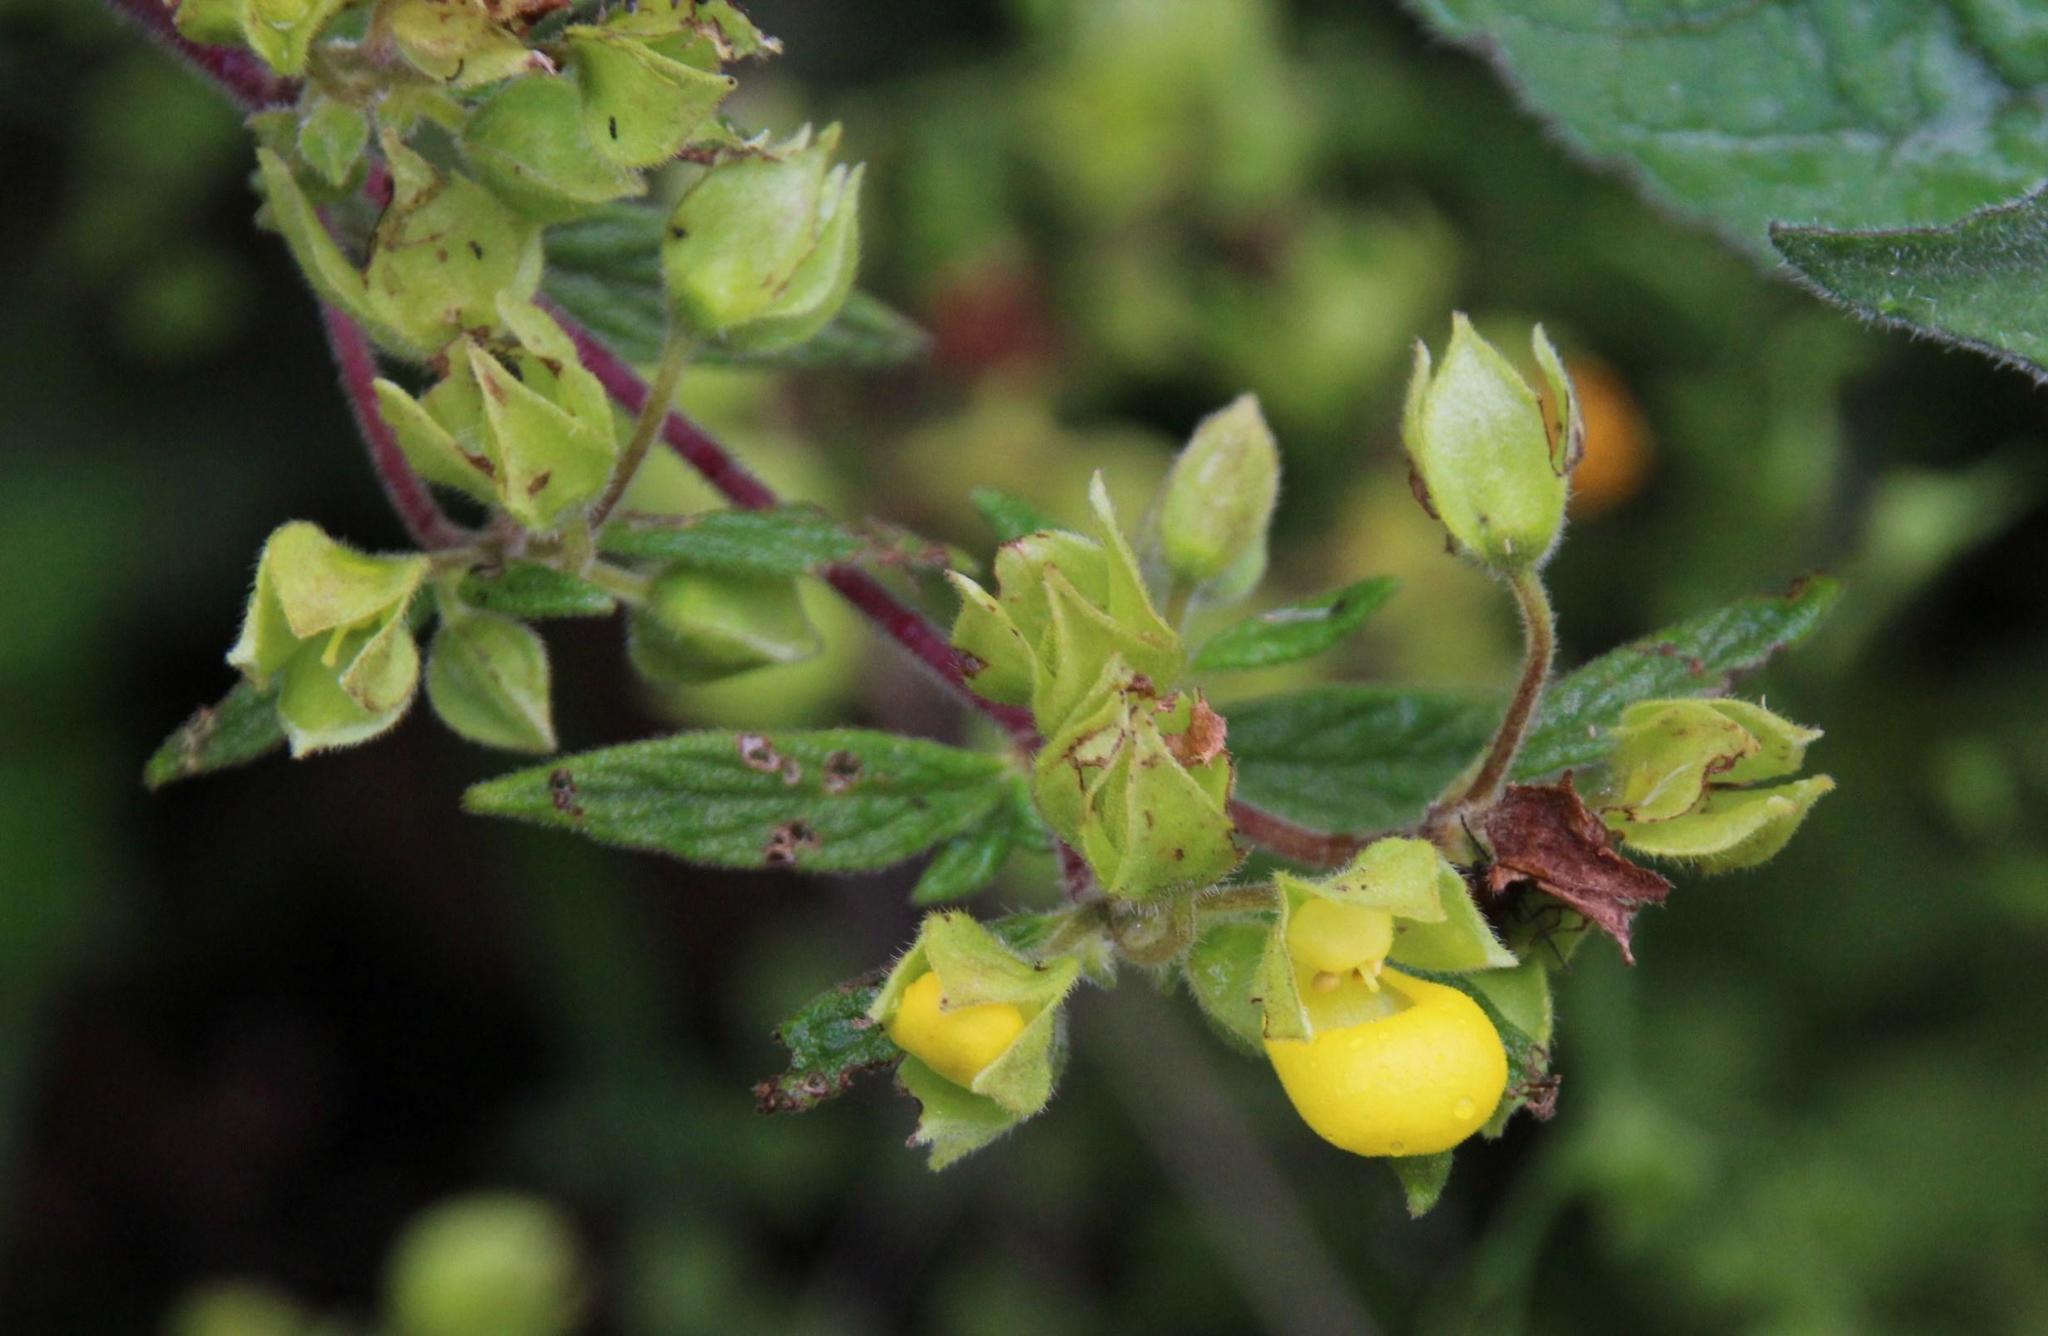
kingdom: Plantae
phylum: Tracheophyta
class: Magnoliopsida
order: Lamiales
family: Calceolariaceae
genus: Calceolaria
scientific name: Calceolaria engleriana
